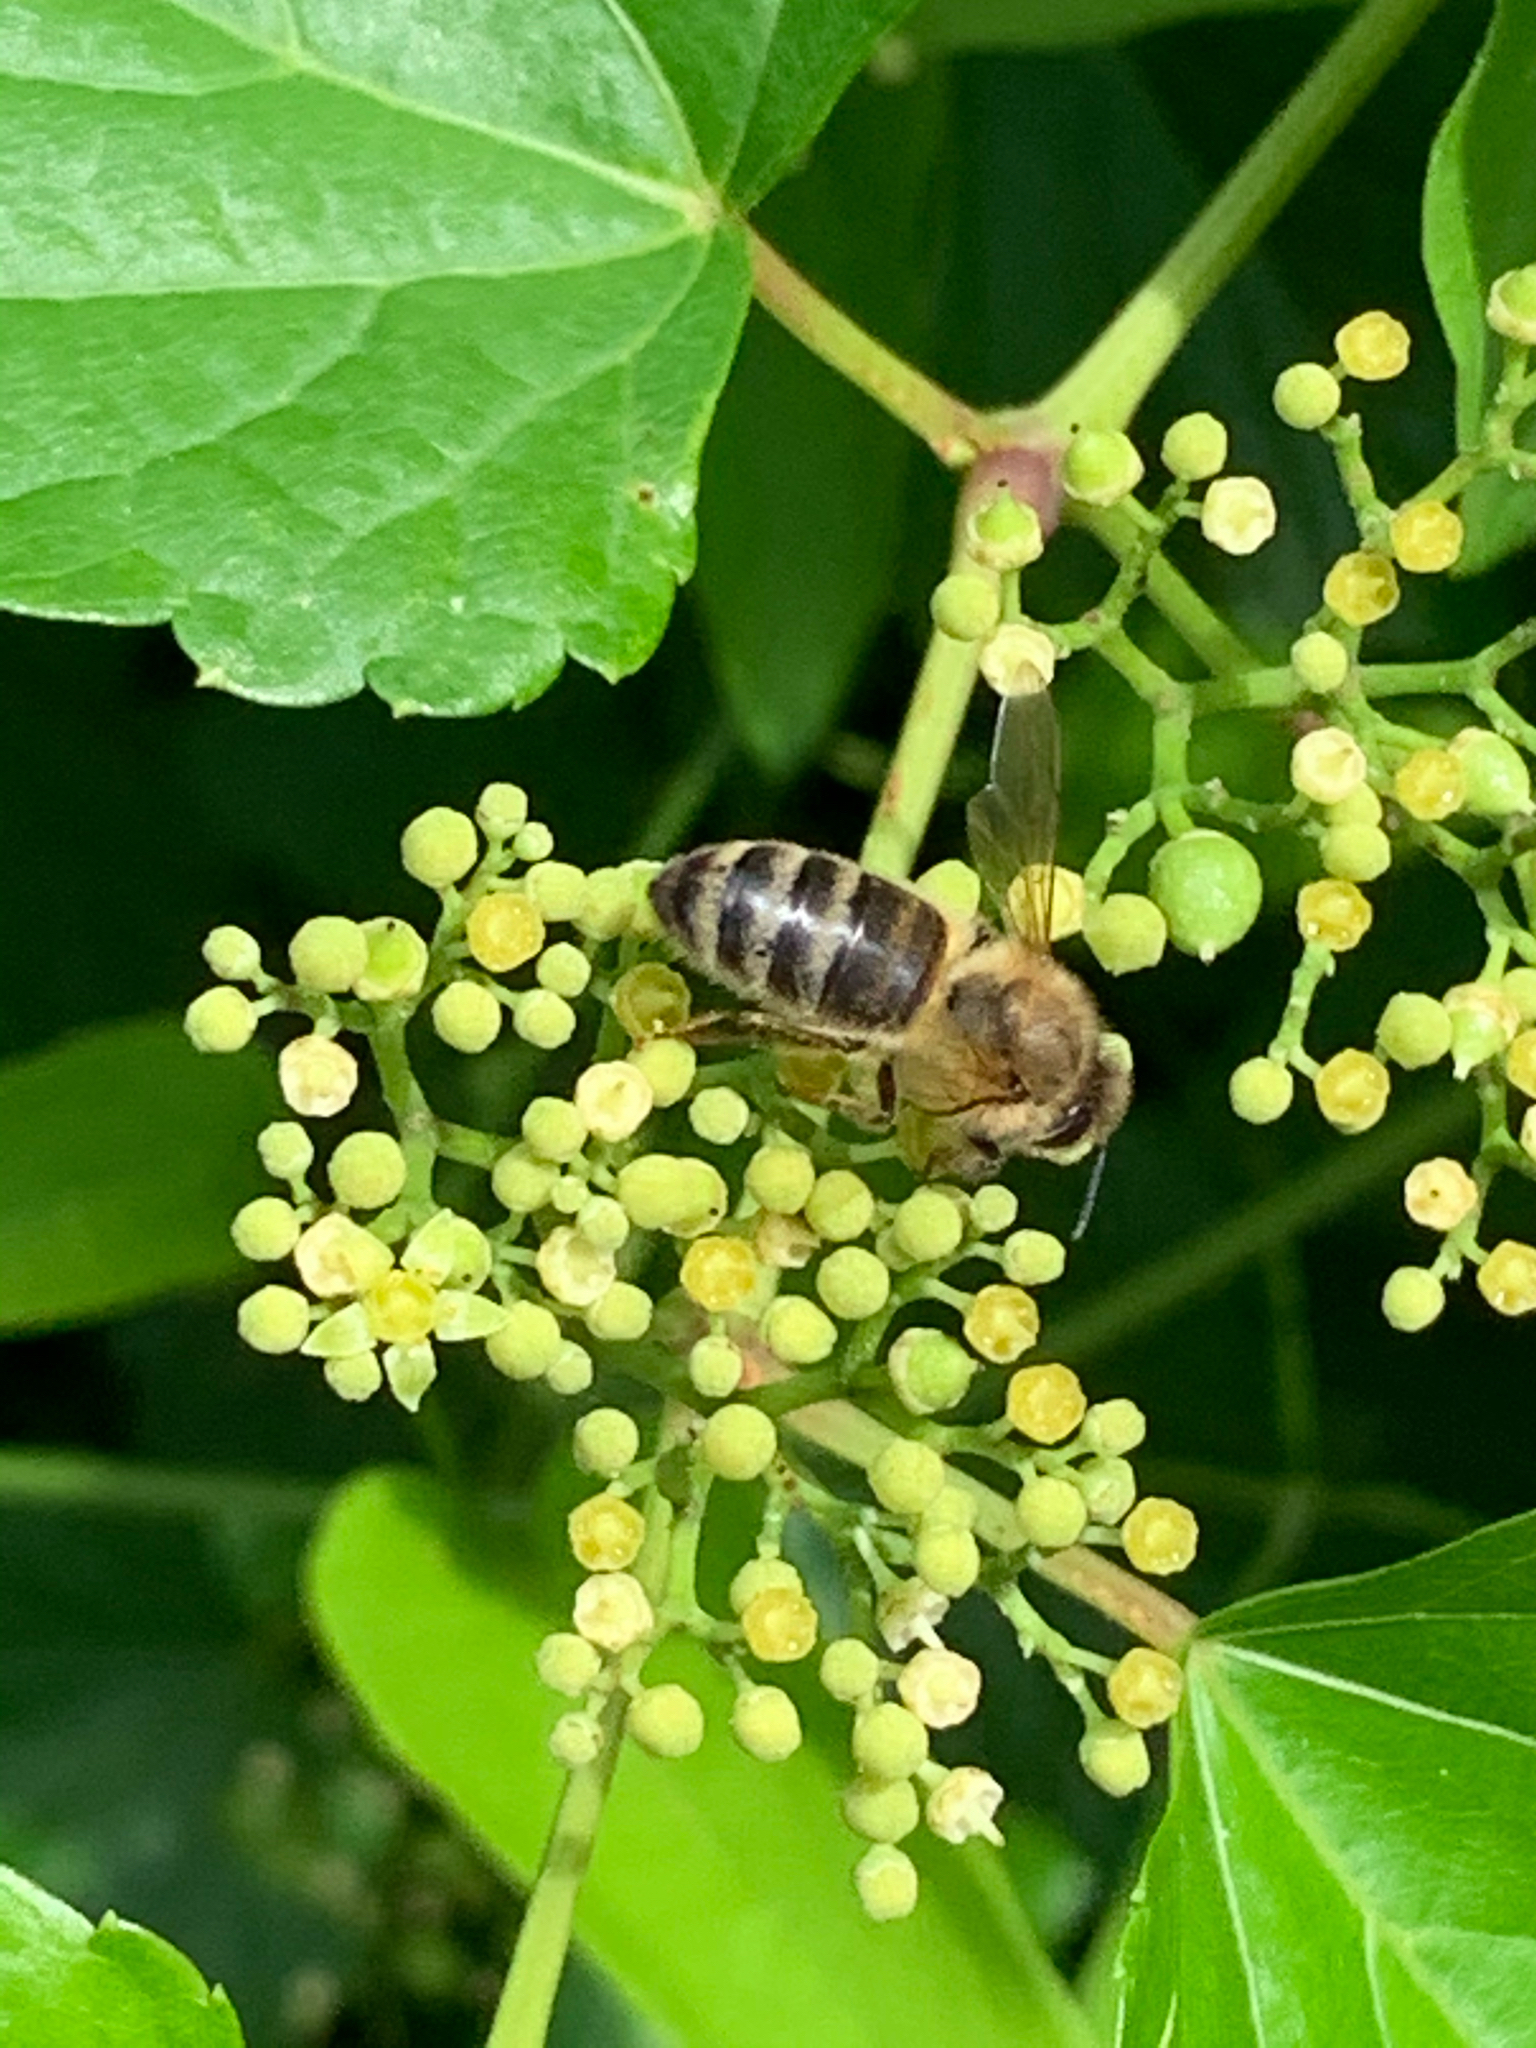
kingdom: Animalia
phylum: Arthropoda
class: Insecta
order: Hymenoptera
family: Apidae
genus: Apis
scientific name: Apis mellifera
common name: Honey bee
